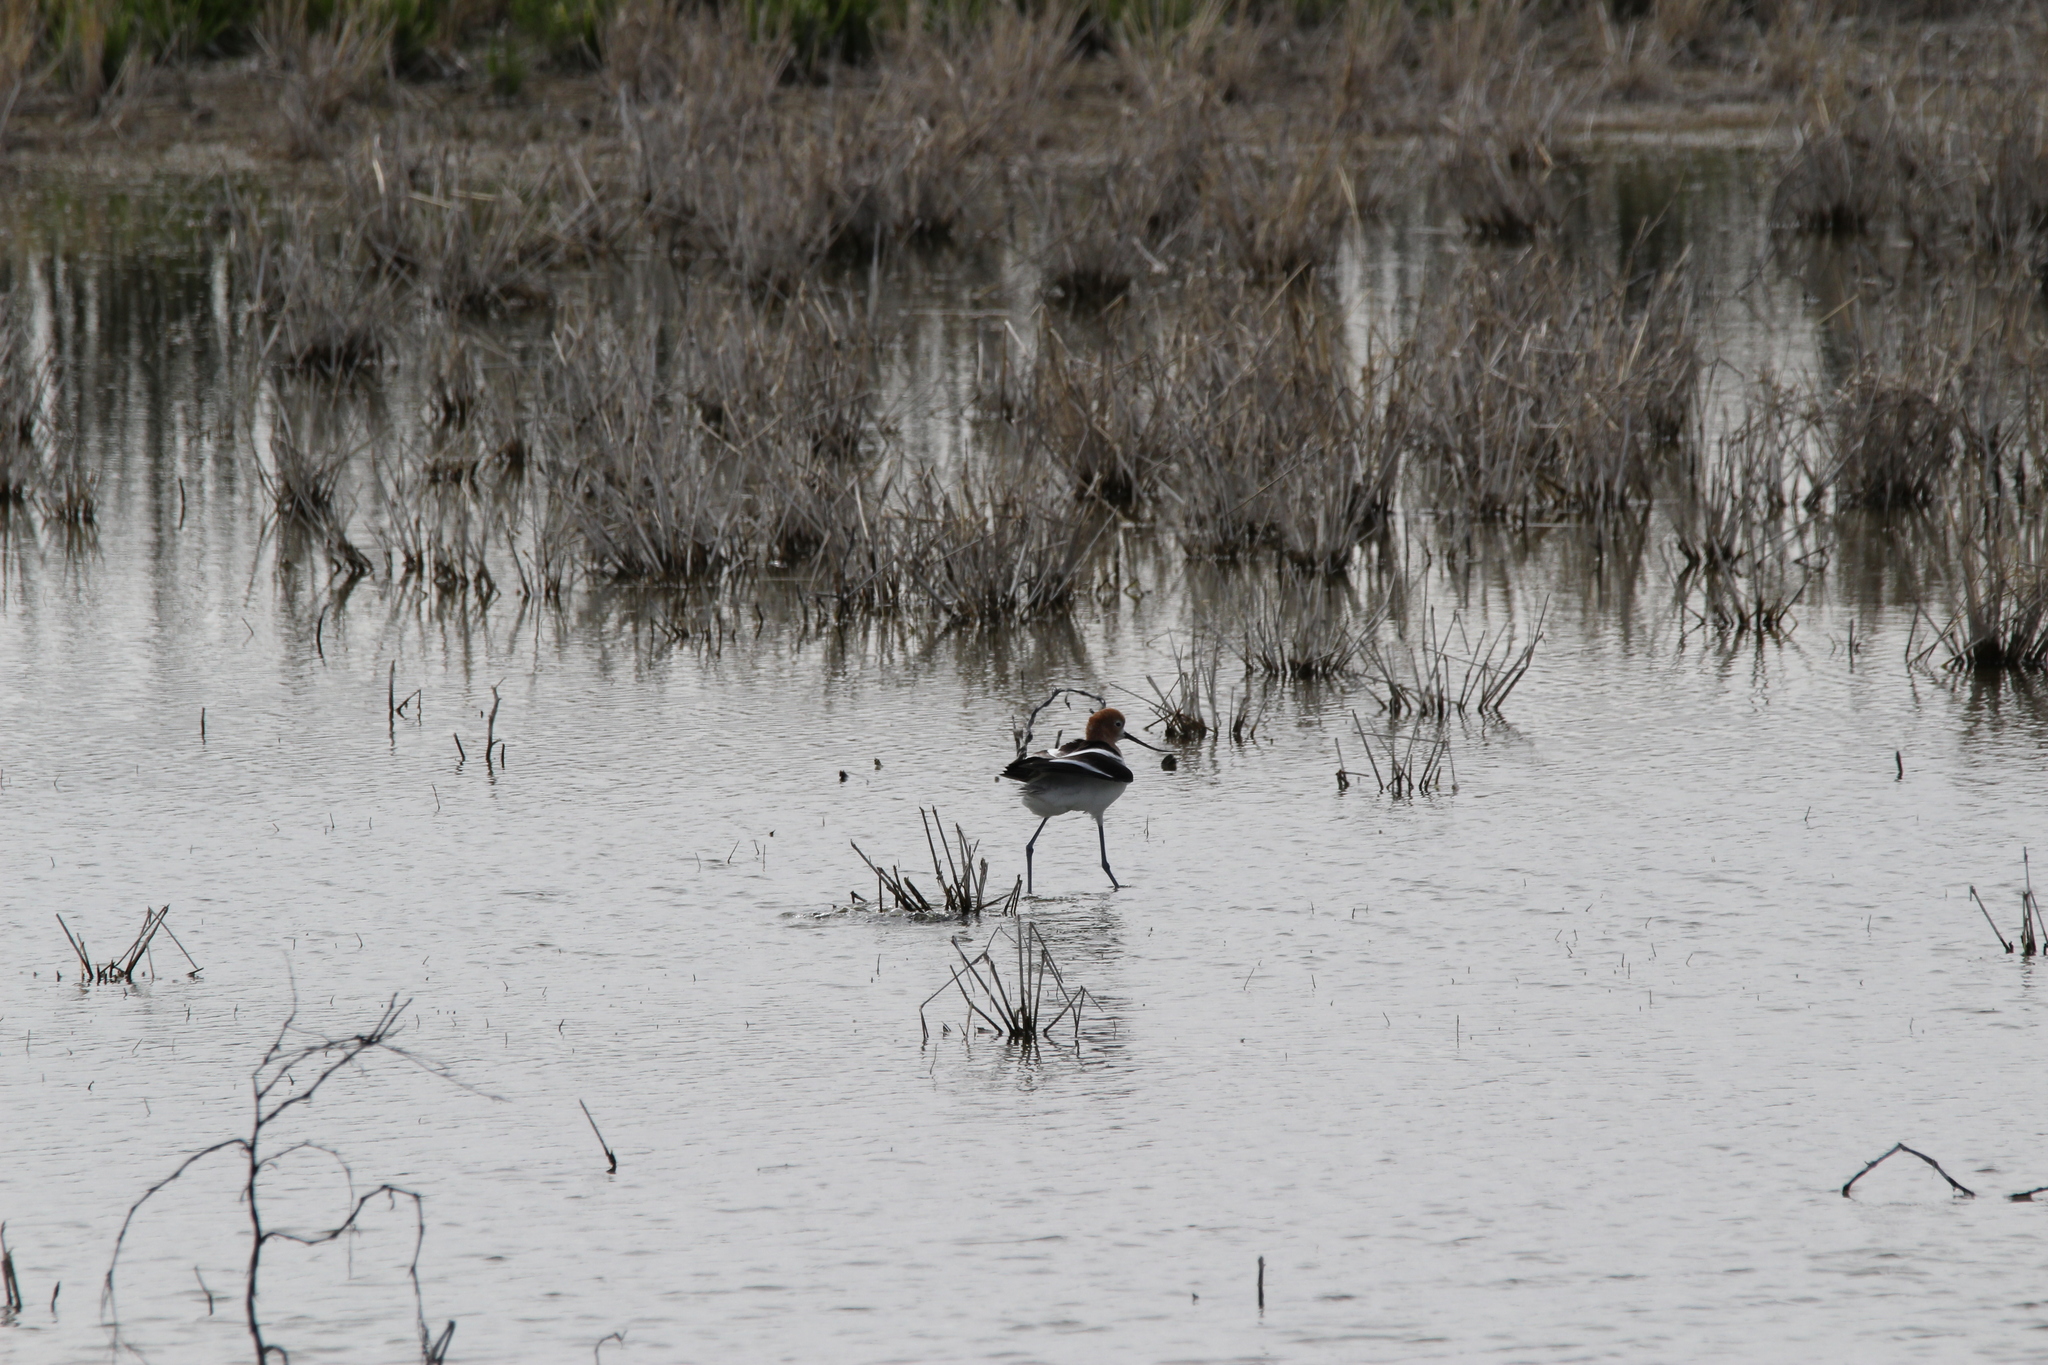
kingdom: Animalia
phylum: Chordata
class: Aves
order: Charadriiformes
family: Recurvirostridae
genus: Recurvirostra
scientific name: Recurvirostra americana
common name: American avocet
